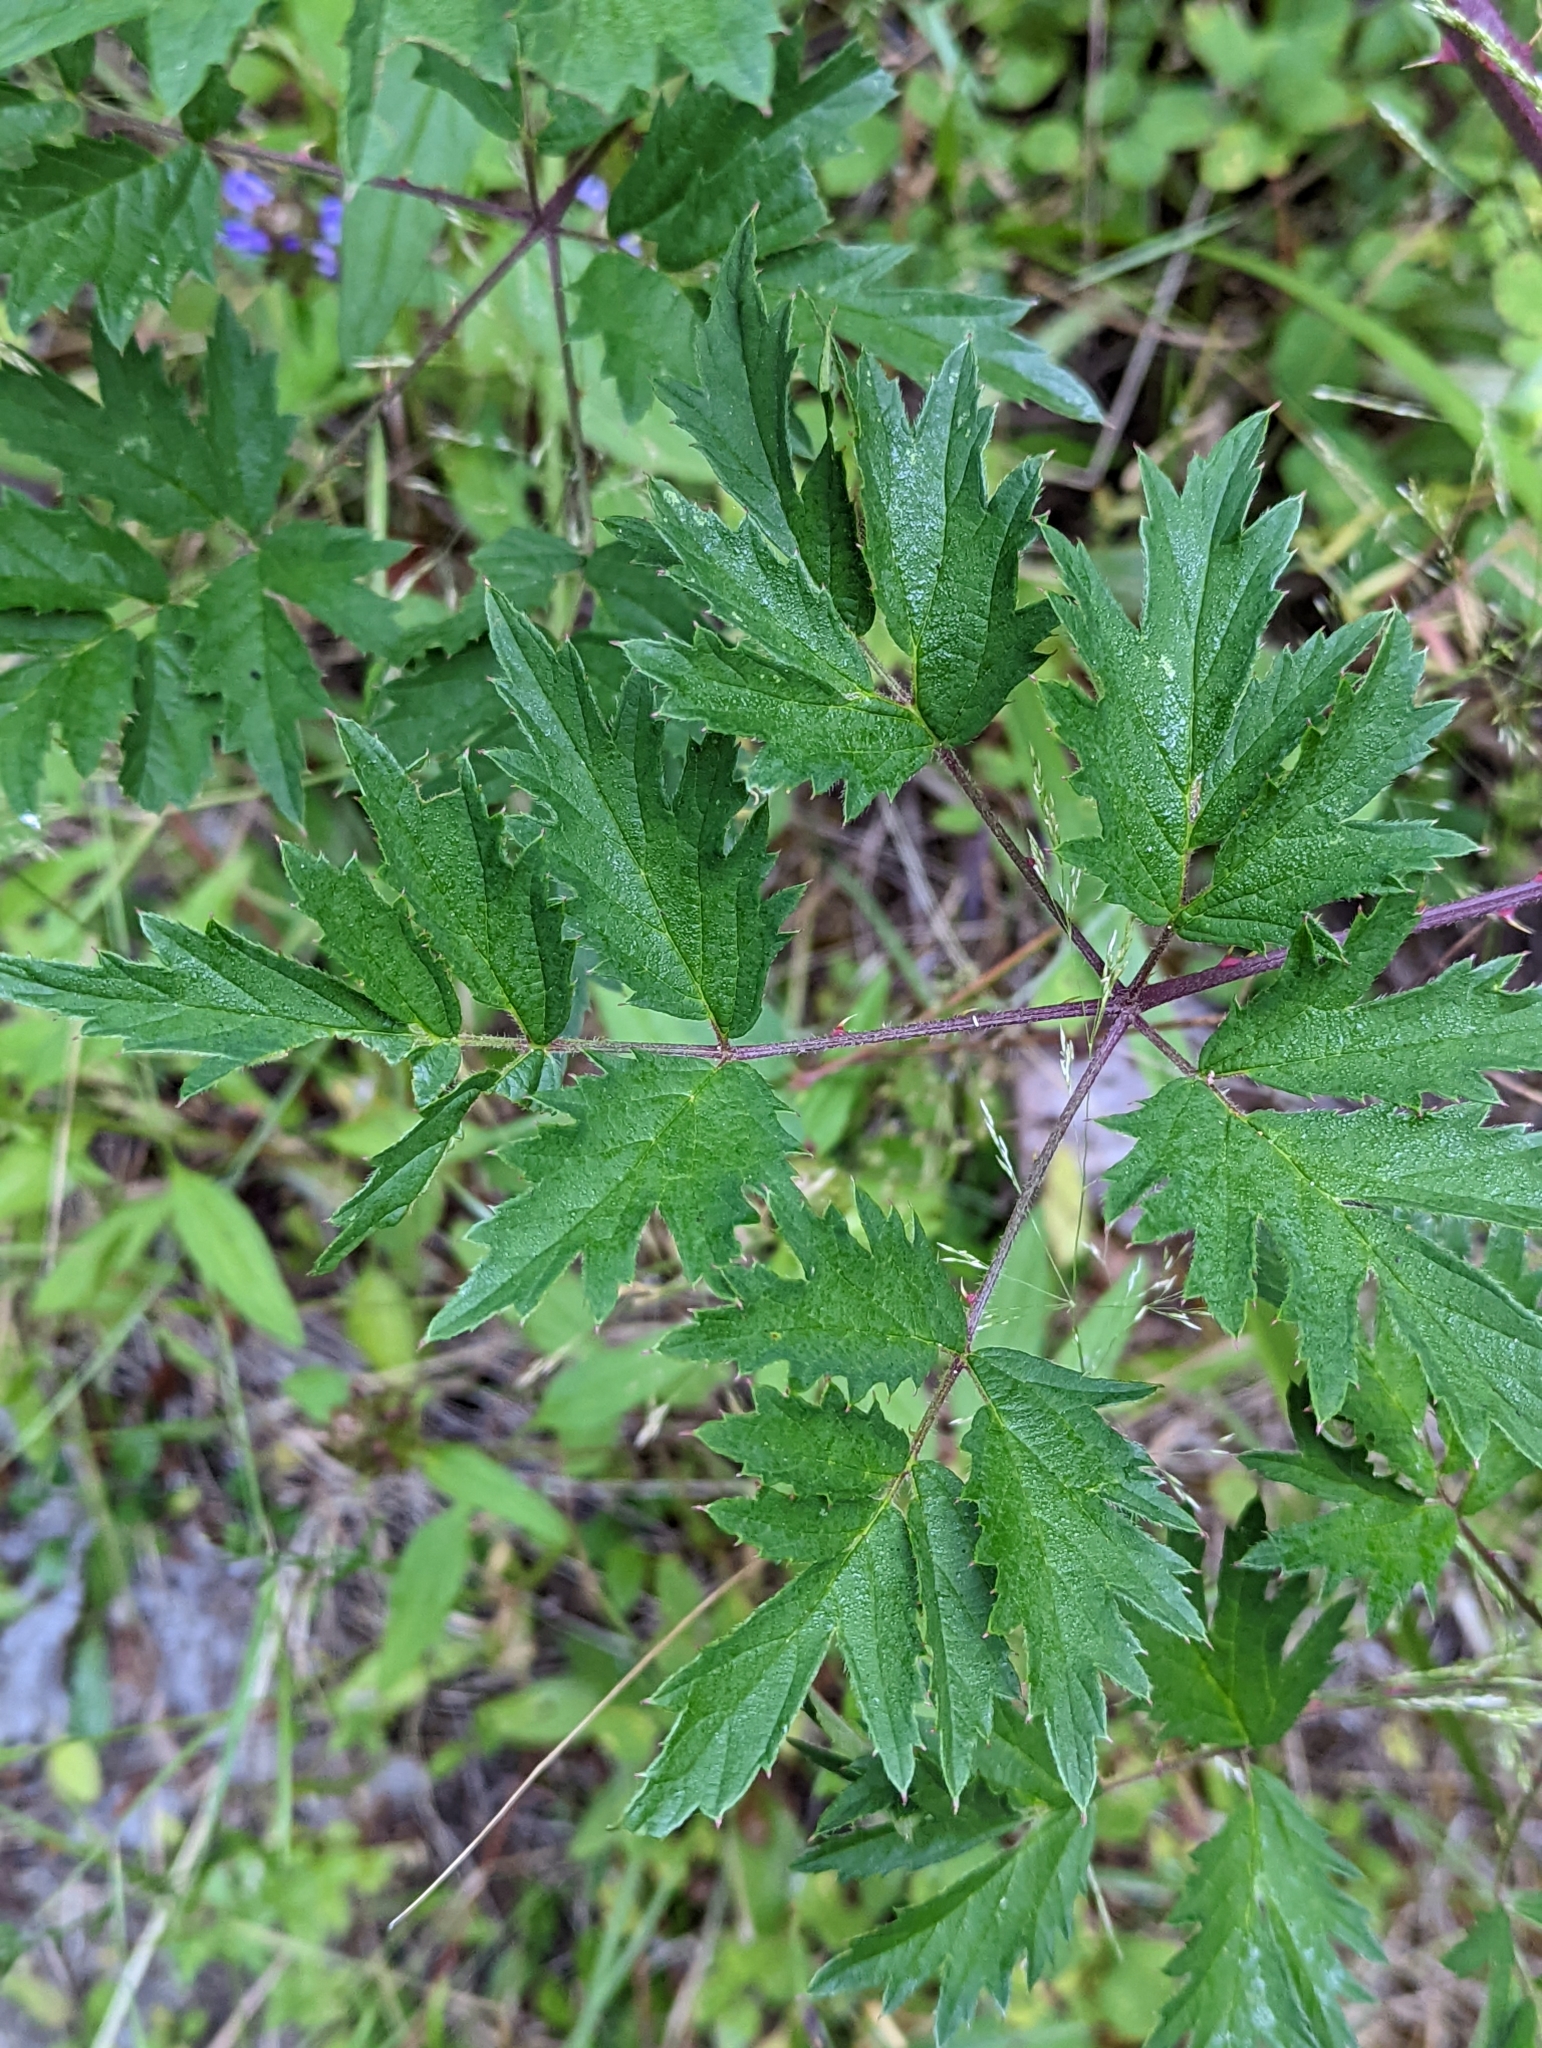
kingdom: Plantae
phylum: Tracheophyta
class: Magnoliopsida
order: Rosales
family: Rosaceae
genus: Rubus
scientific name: Rubus laciniatus
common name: Evergreen blackberry
